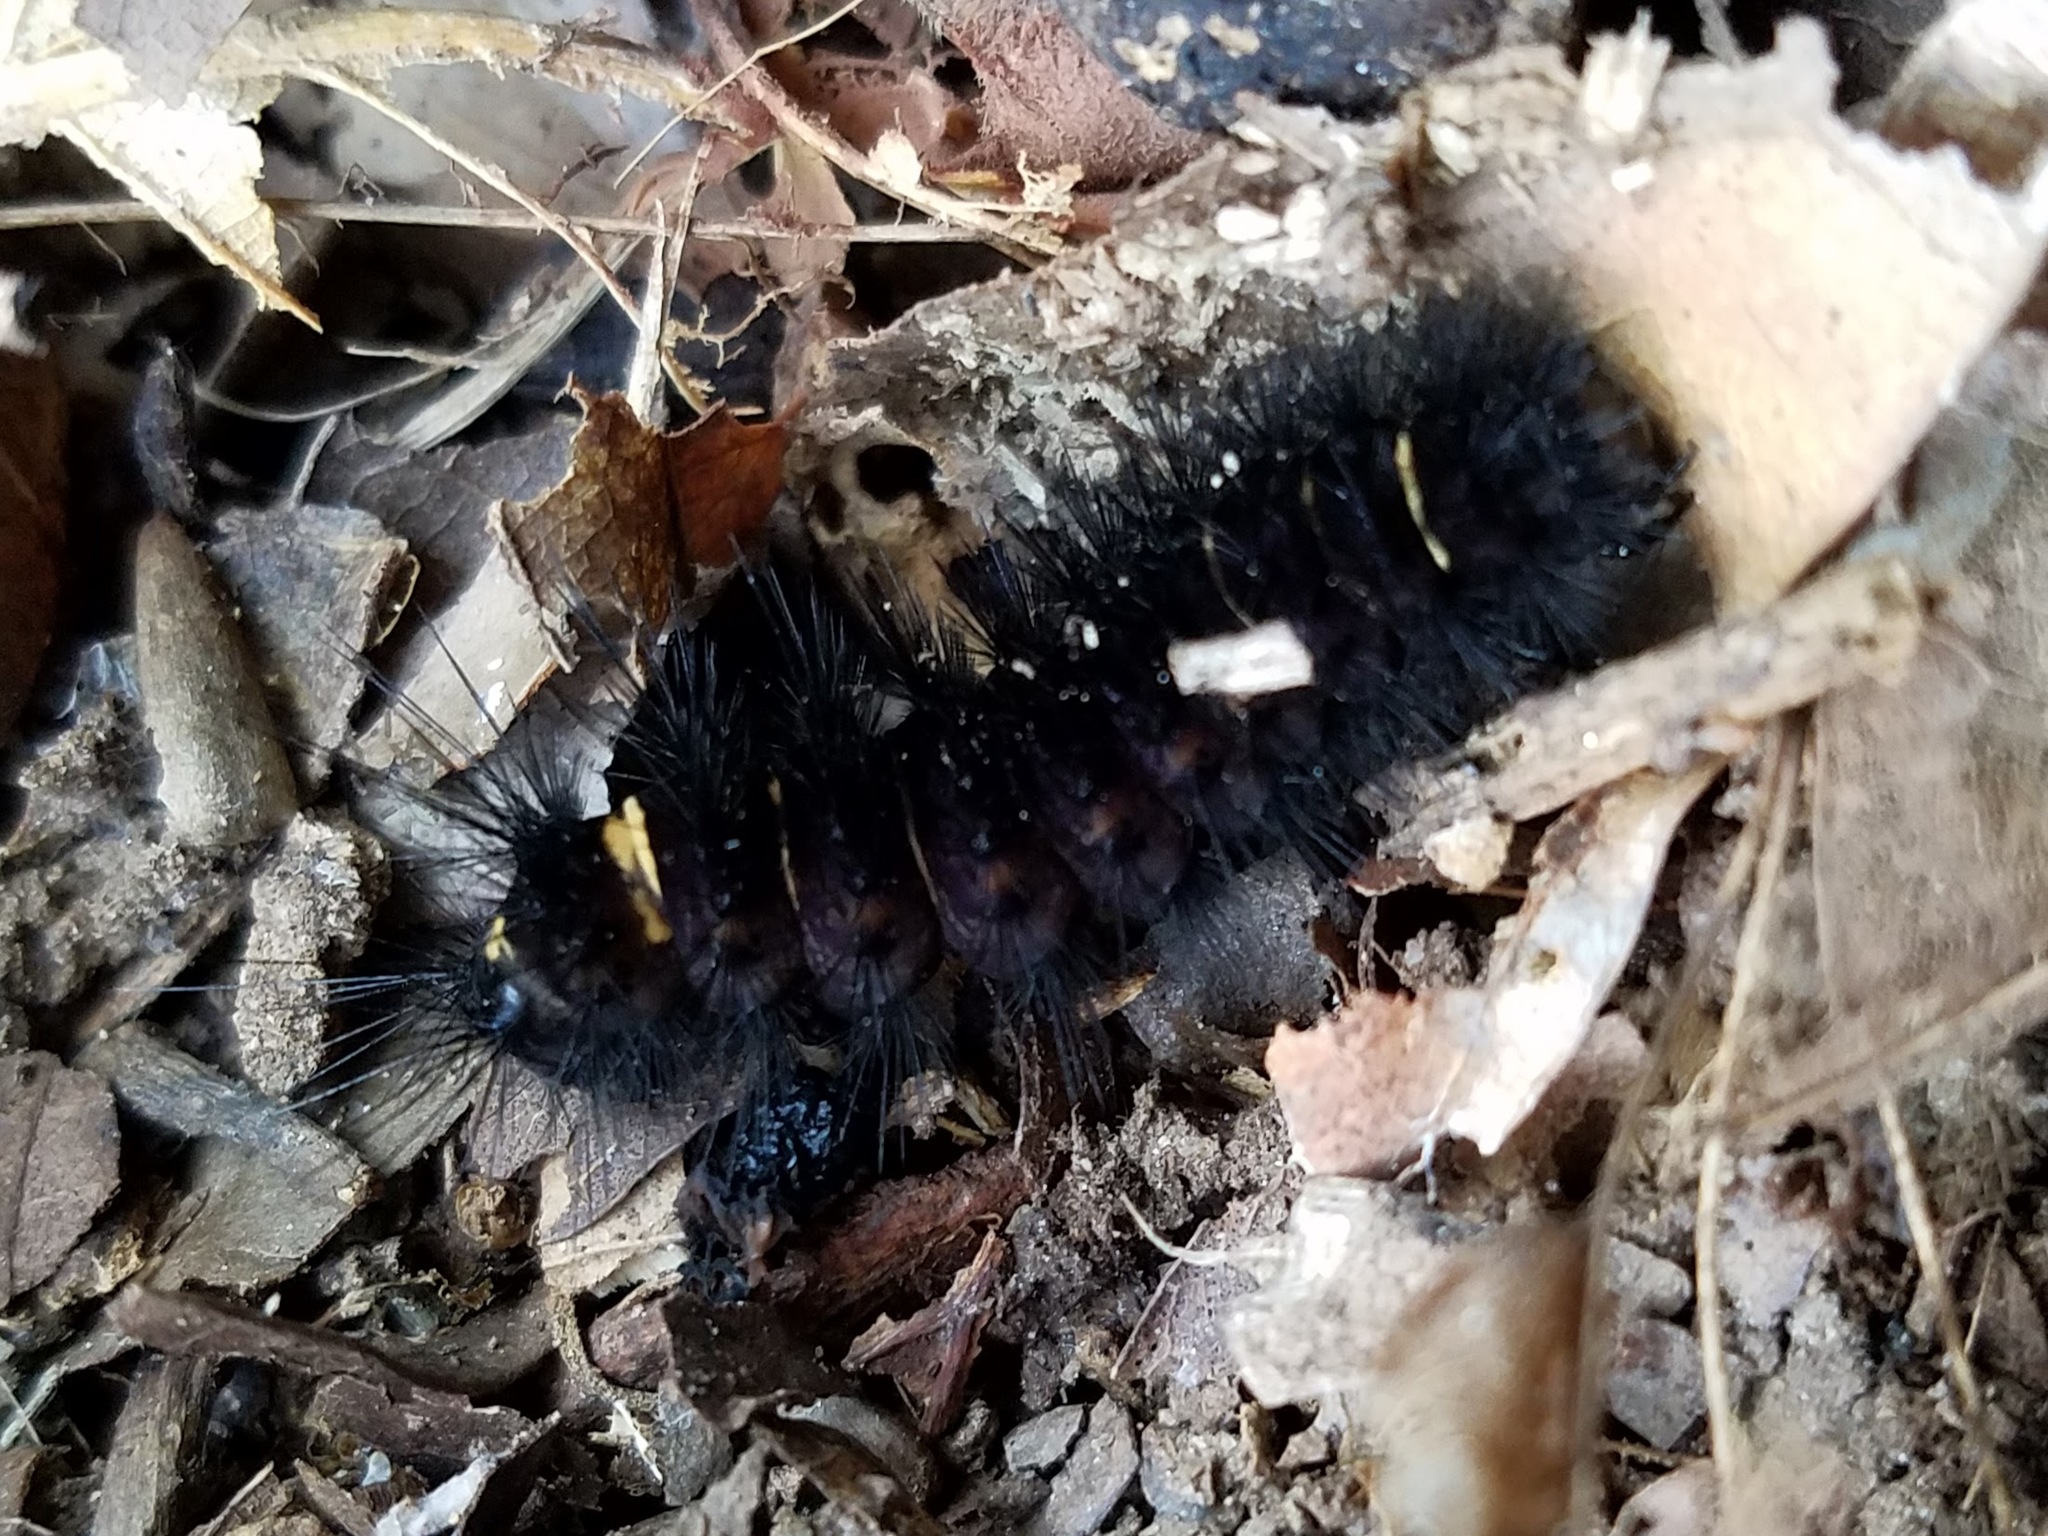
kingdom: Animalia
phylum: Arthropoda
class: Insecta
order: Lepidoptera
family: Erebidae
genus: Spilosoma
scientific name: Spilosoma congrua
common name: Agreeable tiger moth
